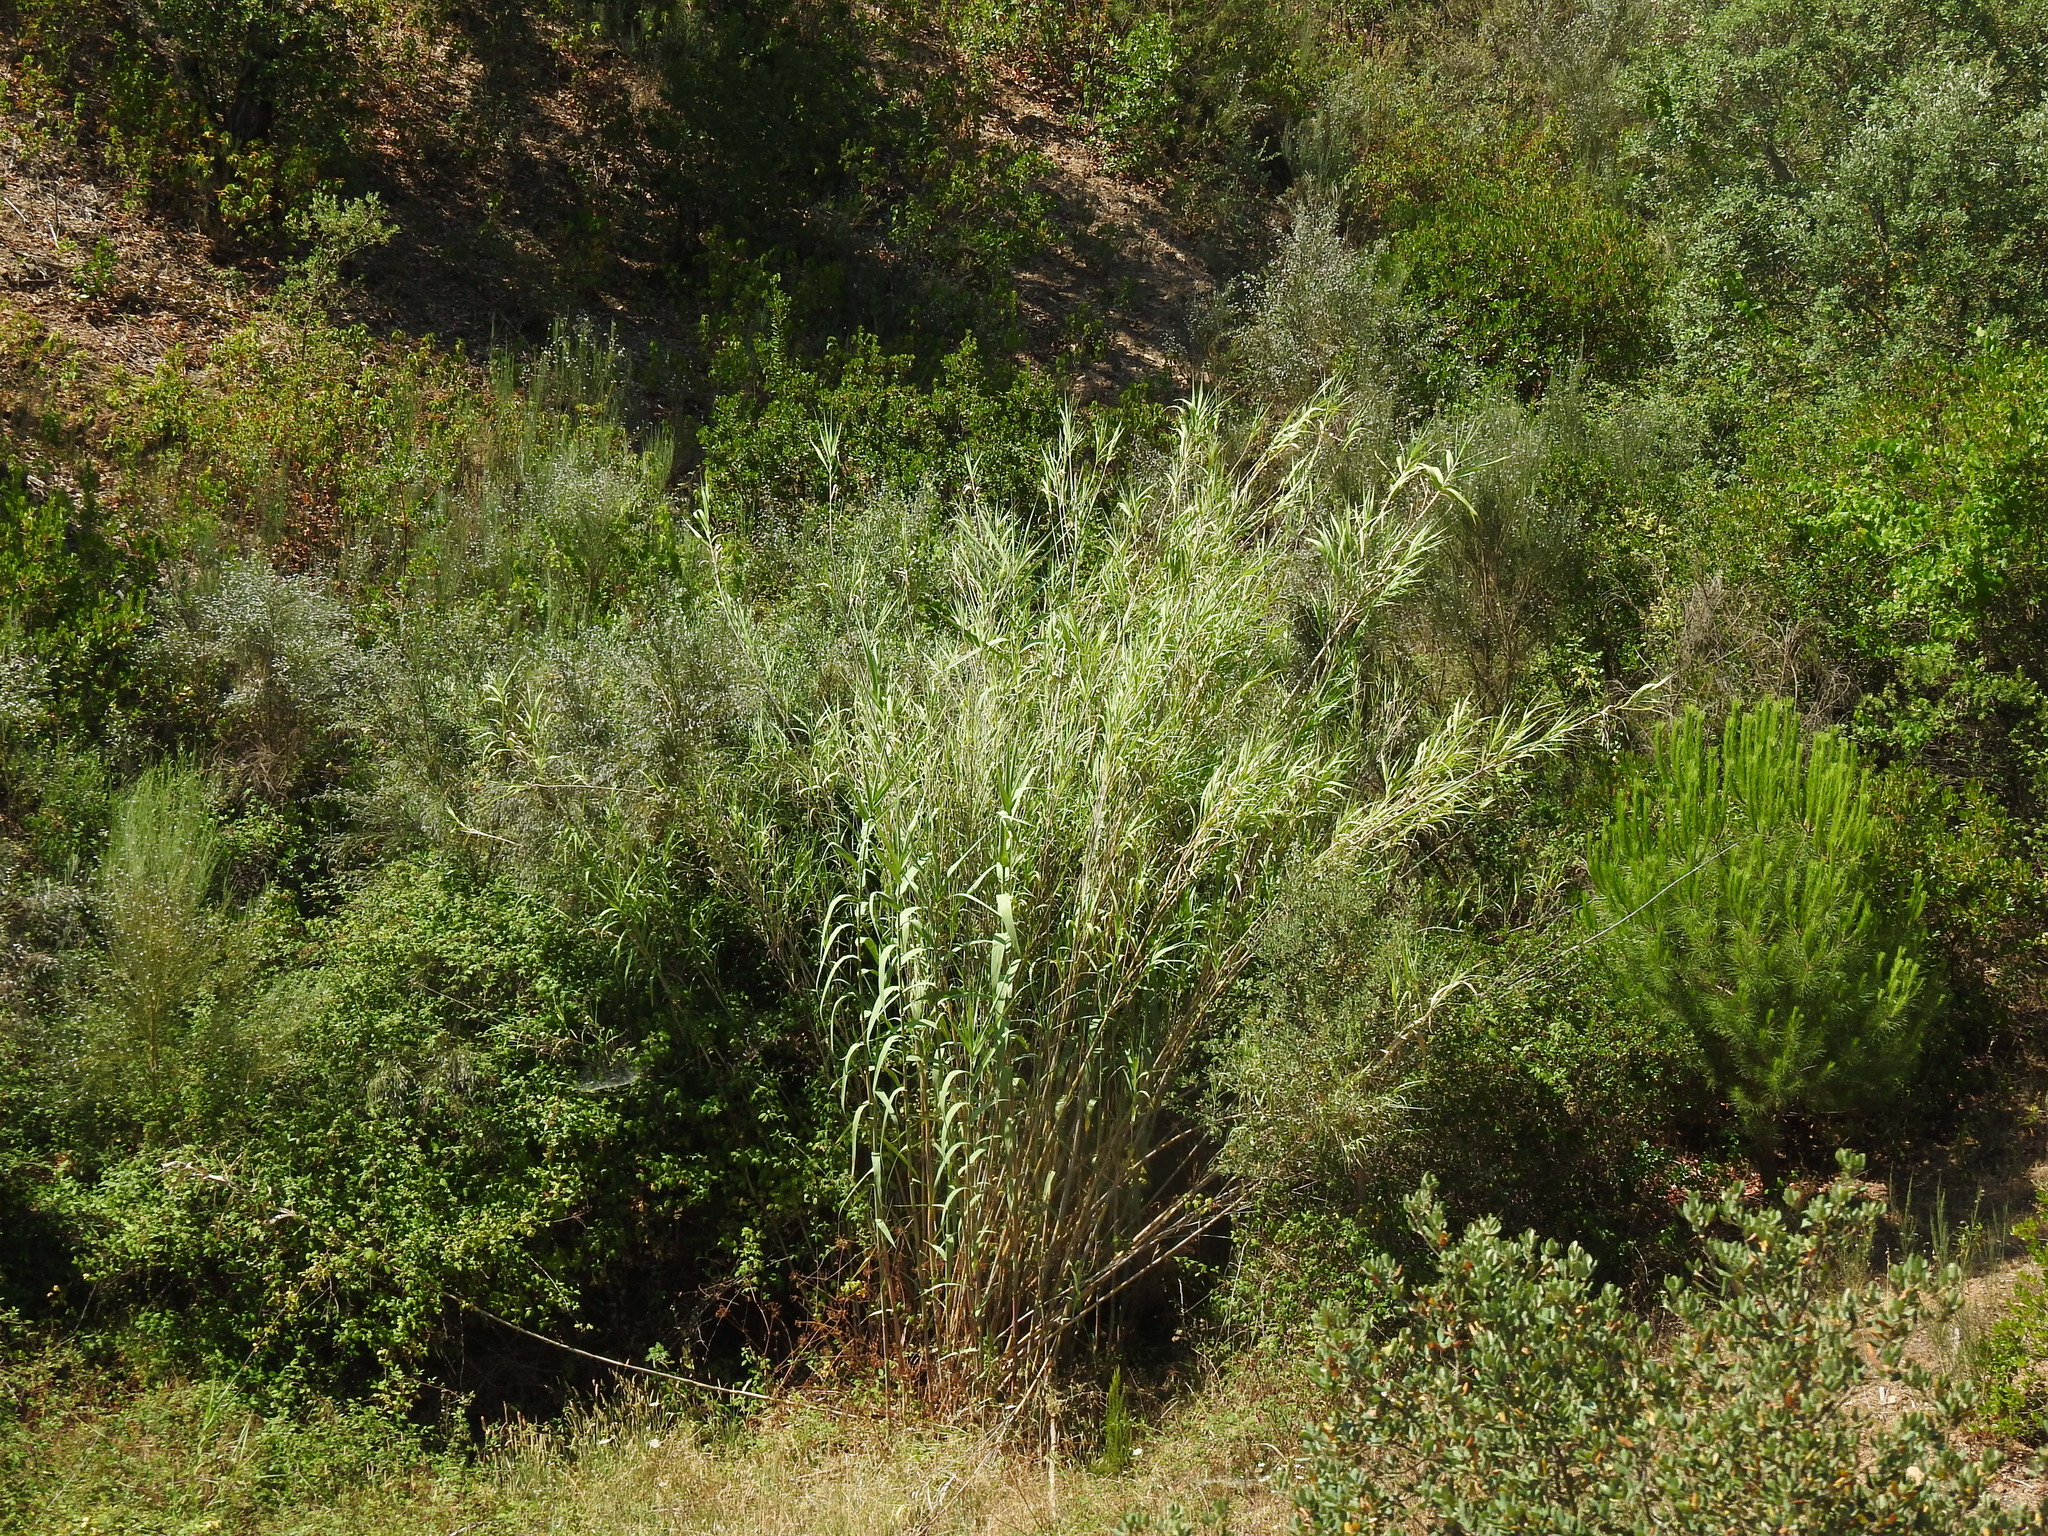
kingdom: Plantae
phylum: Tracheophyta
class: Liliopsida
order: Poales
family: Poaceae
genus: Arundo
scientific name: Arundo donax
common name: Giant reed
